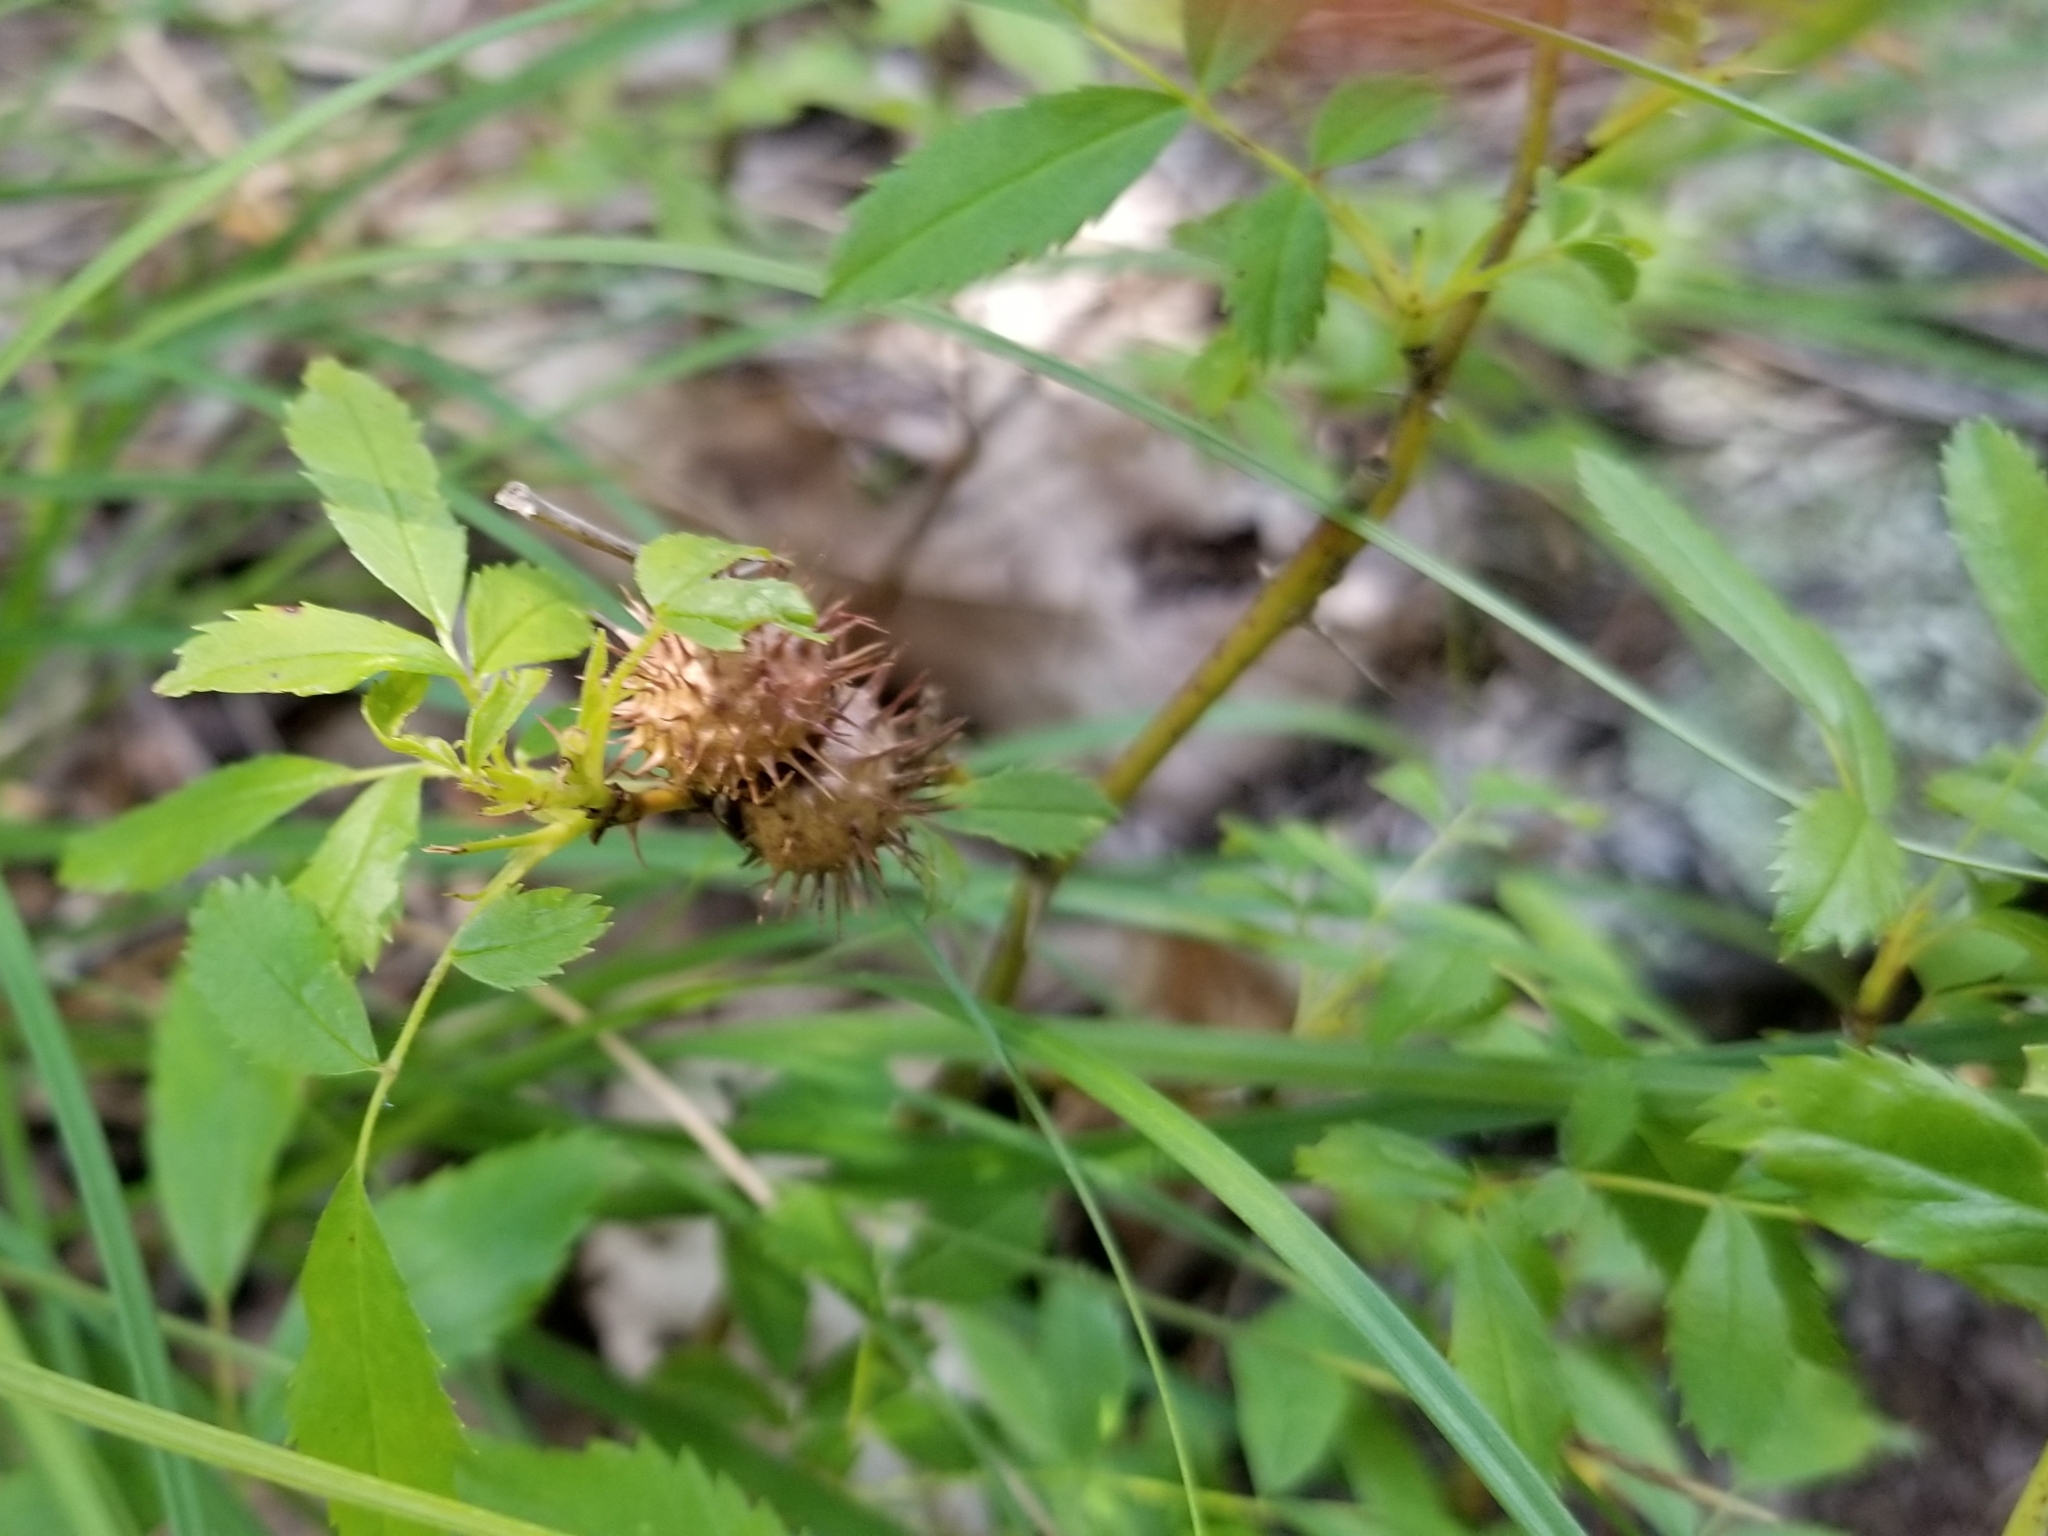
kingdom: Animalia
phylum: Arthropoda
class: Insecta
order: Hymenoptera
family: Cynipidae
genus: Diplolepis
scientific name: Diplolepis polita
